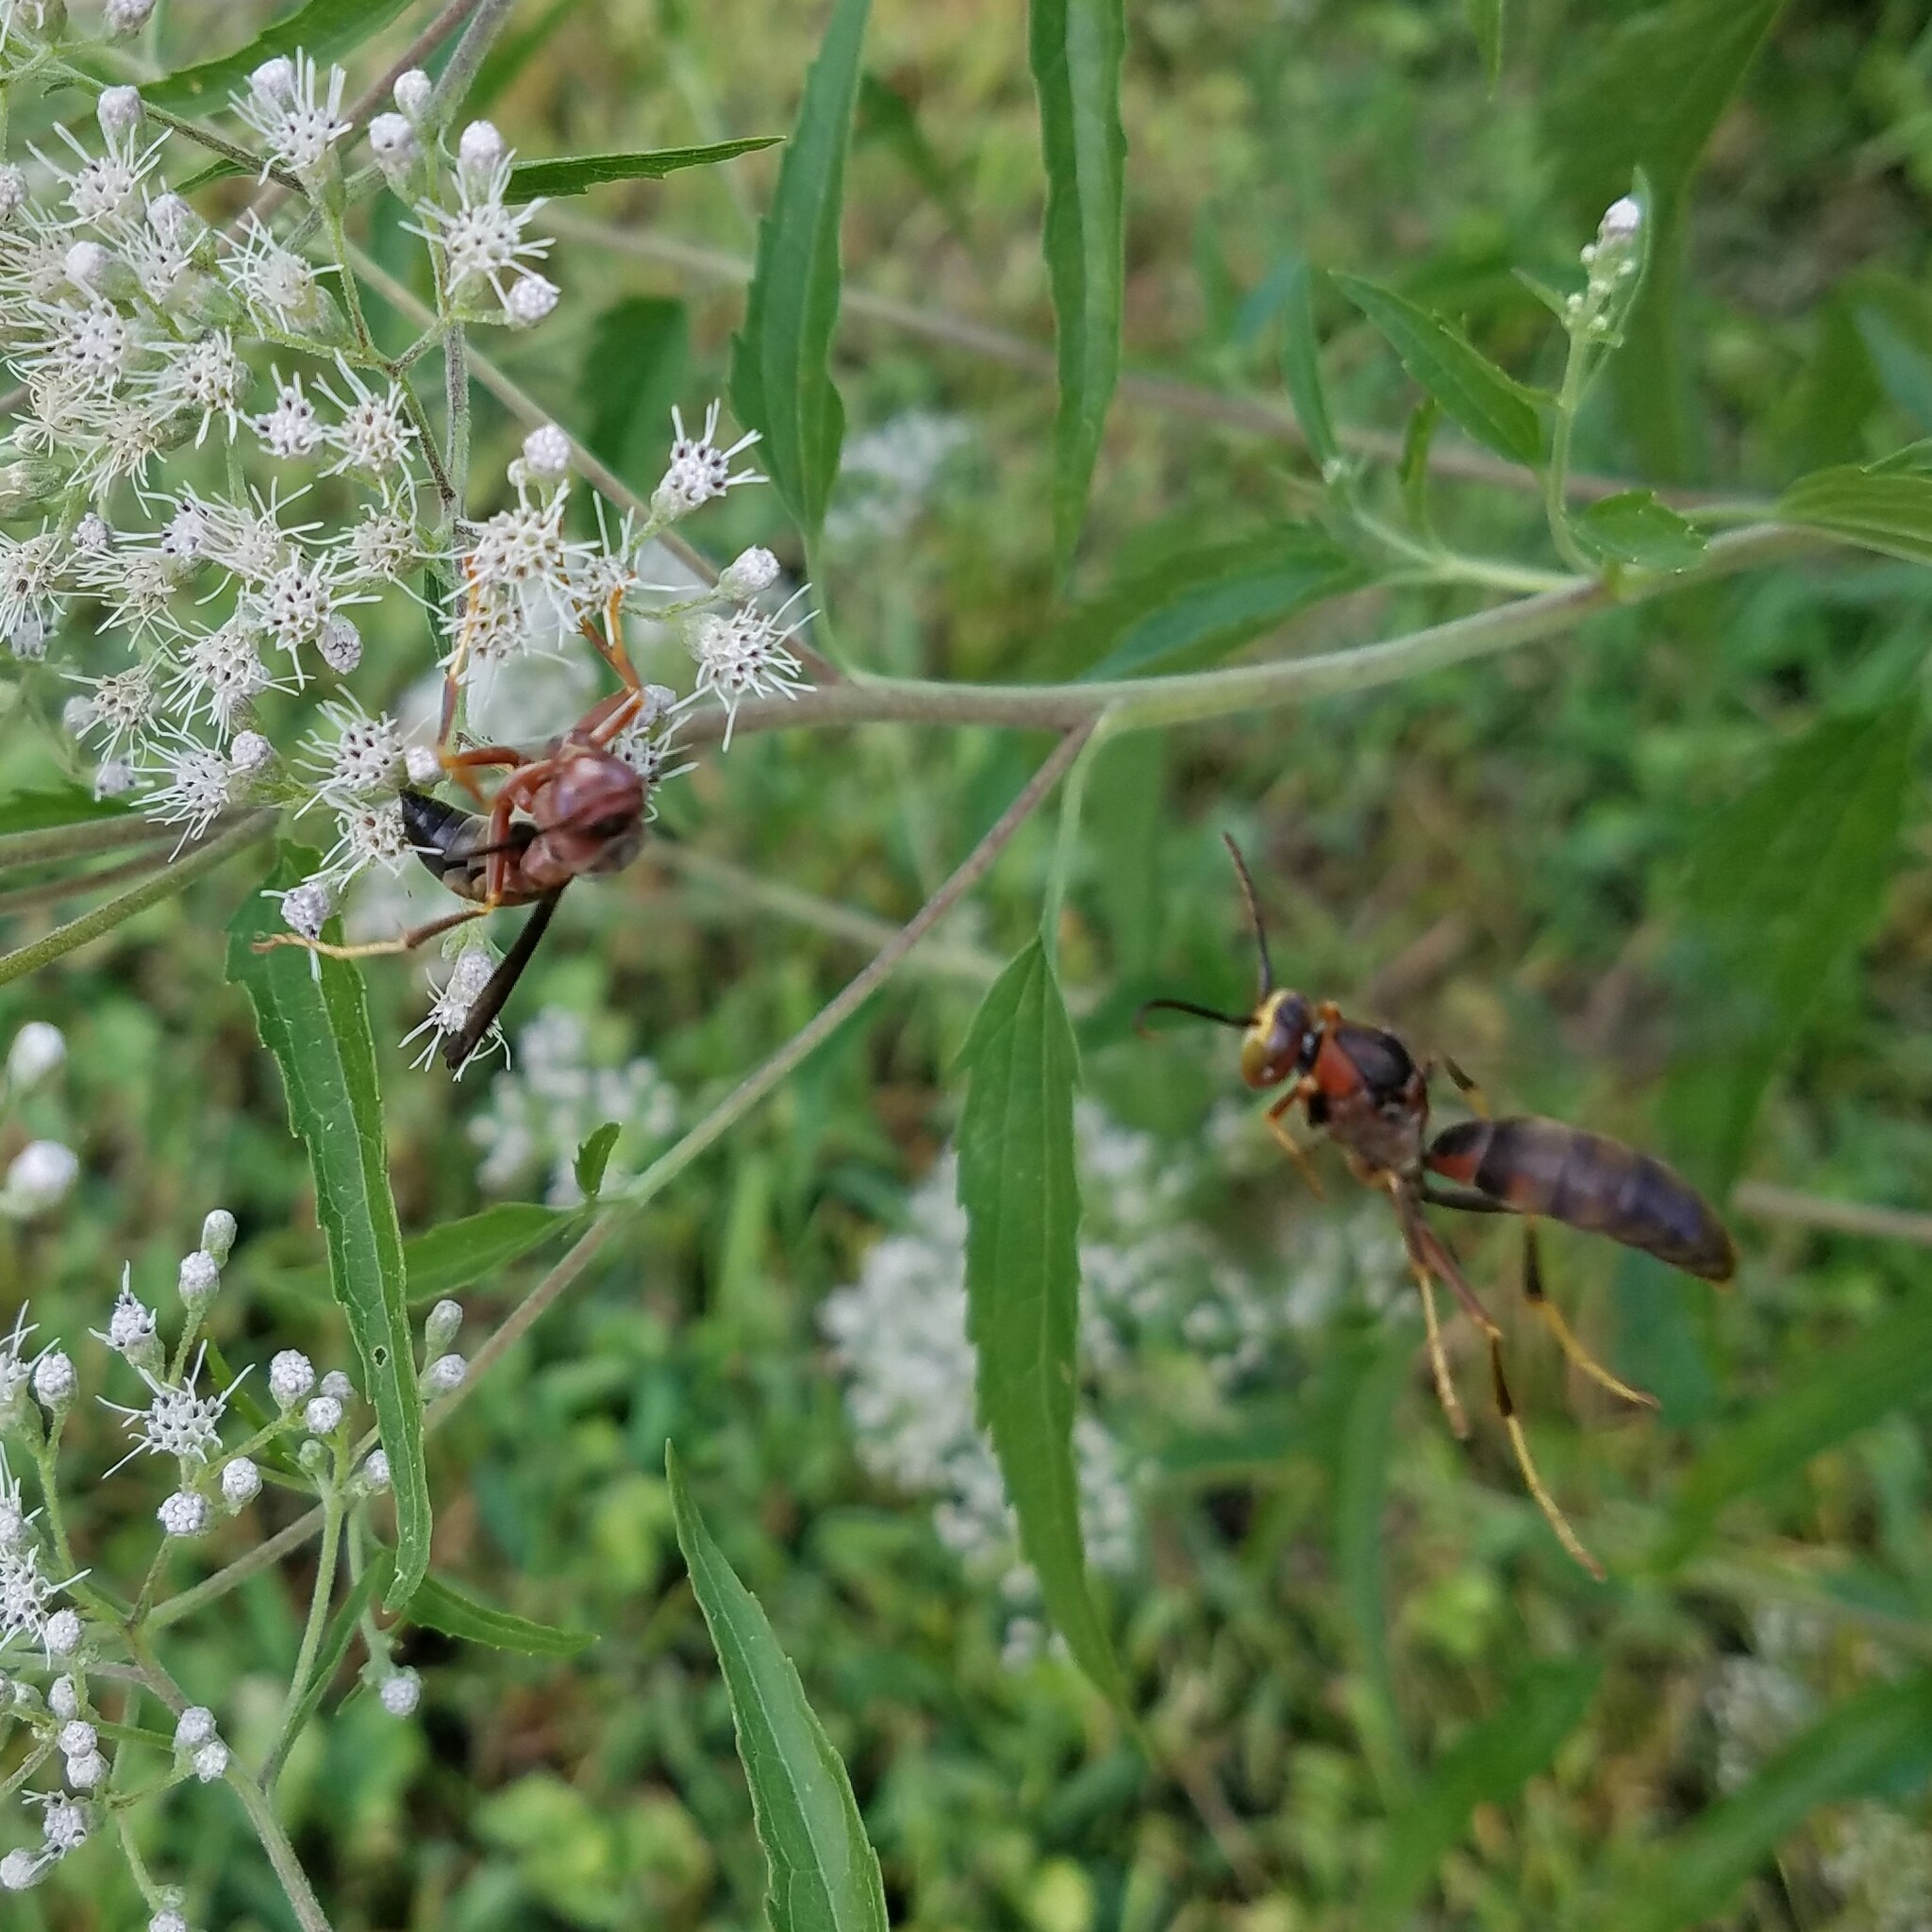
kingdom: Animalia
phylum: Arthropoda
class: Insecta
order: Hymenoptera
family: Eumenidae
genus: Polistes
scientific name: Polistes metricus
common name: Metric paper wasp
